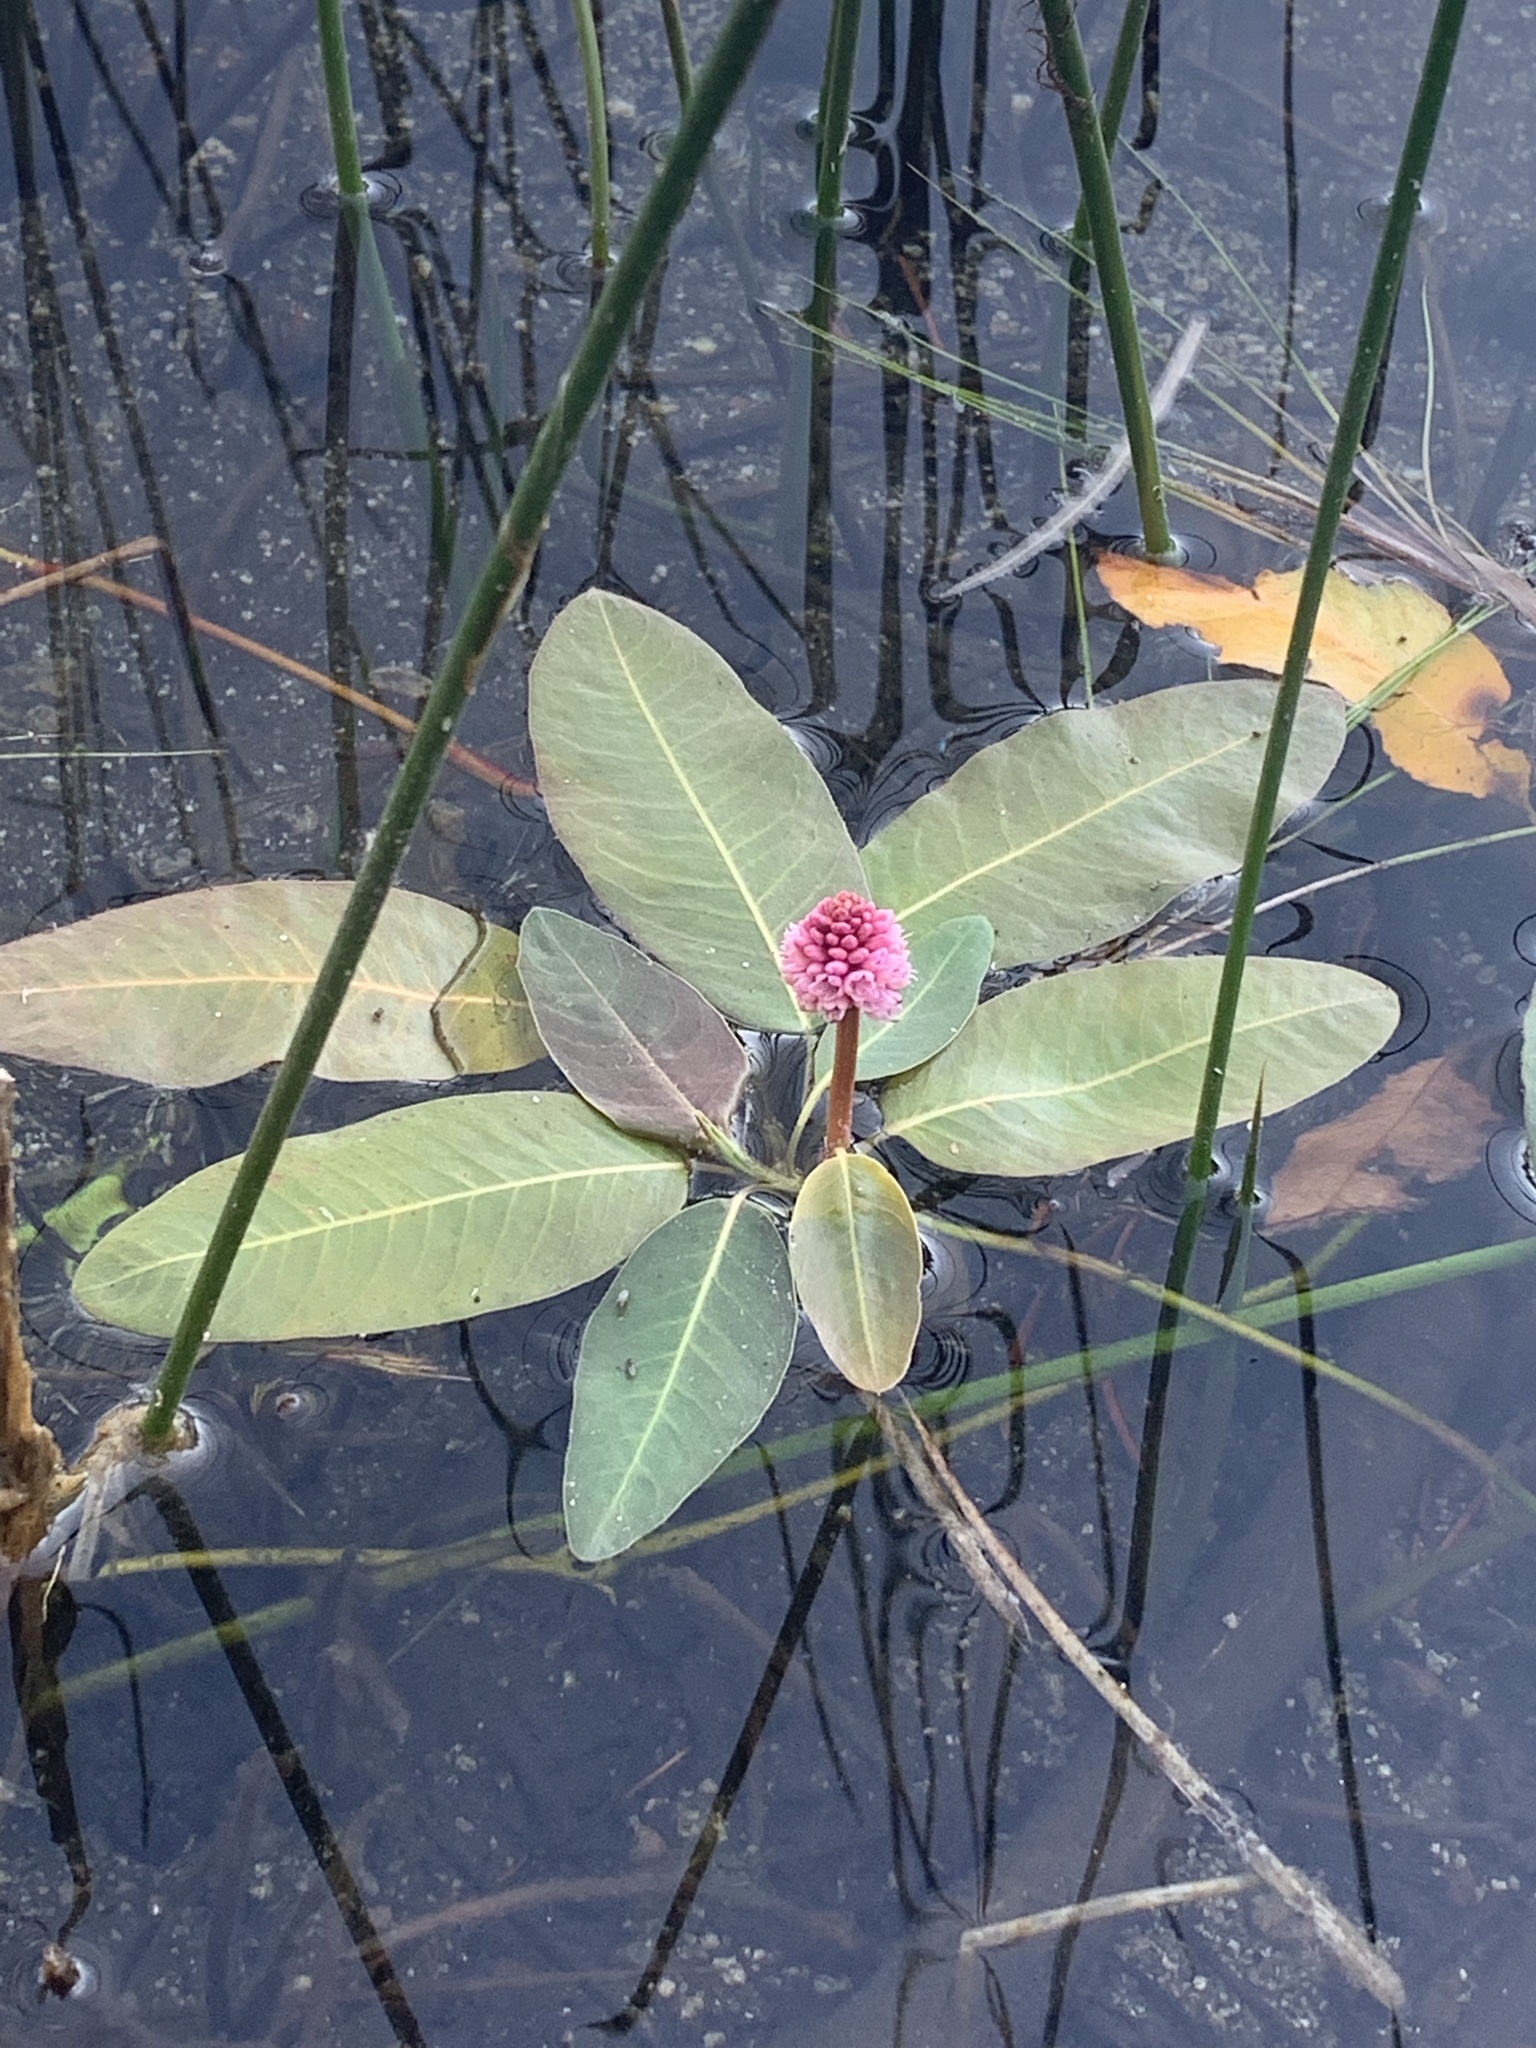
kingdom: Plantae
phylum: Tracheophyta
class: Magnoliopsida
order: Caryophyllales
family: Polygonaceae
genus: Persicaria
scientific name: Persicaria amphibia
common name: Amphibious bistort
